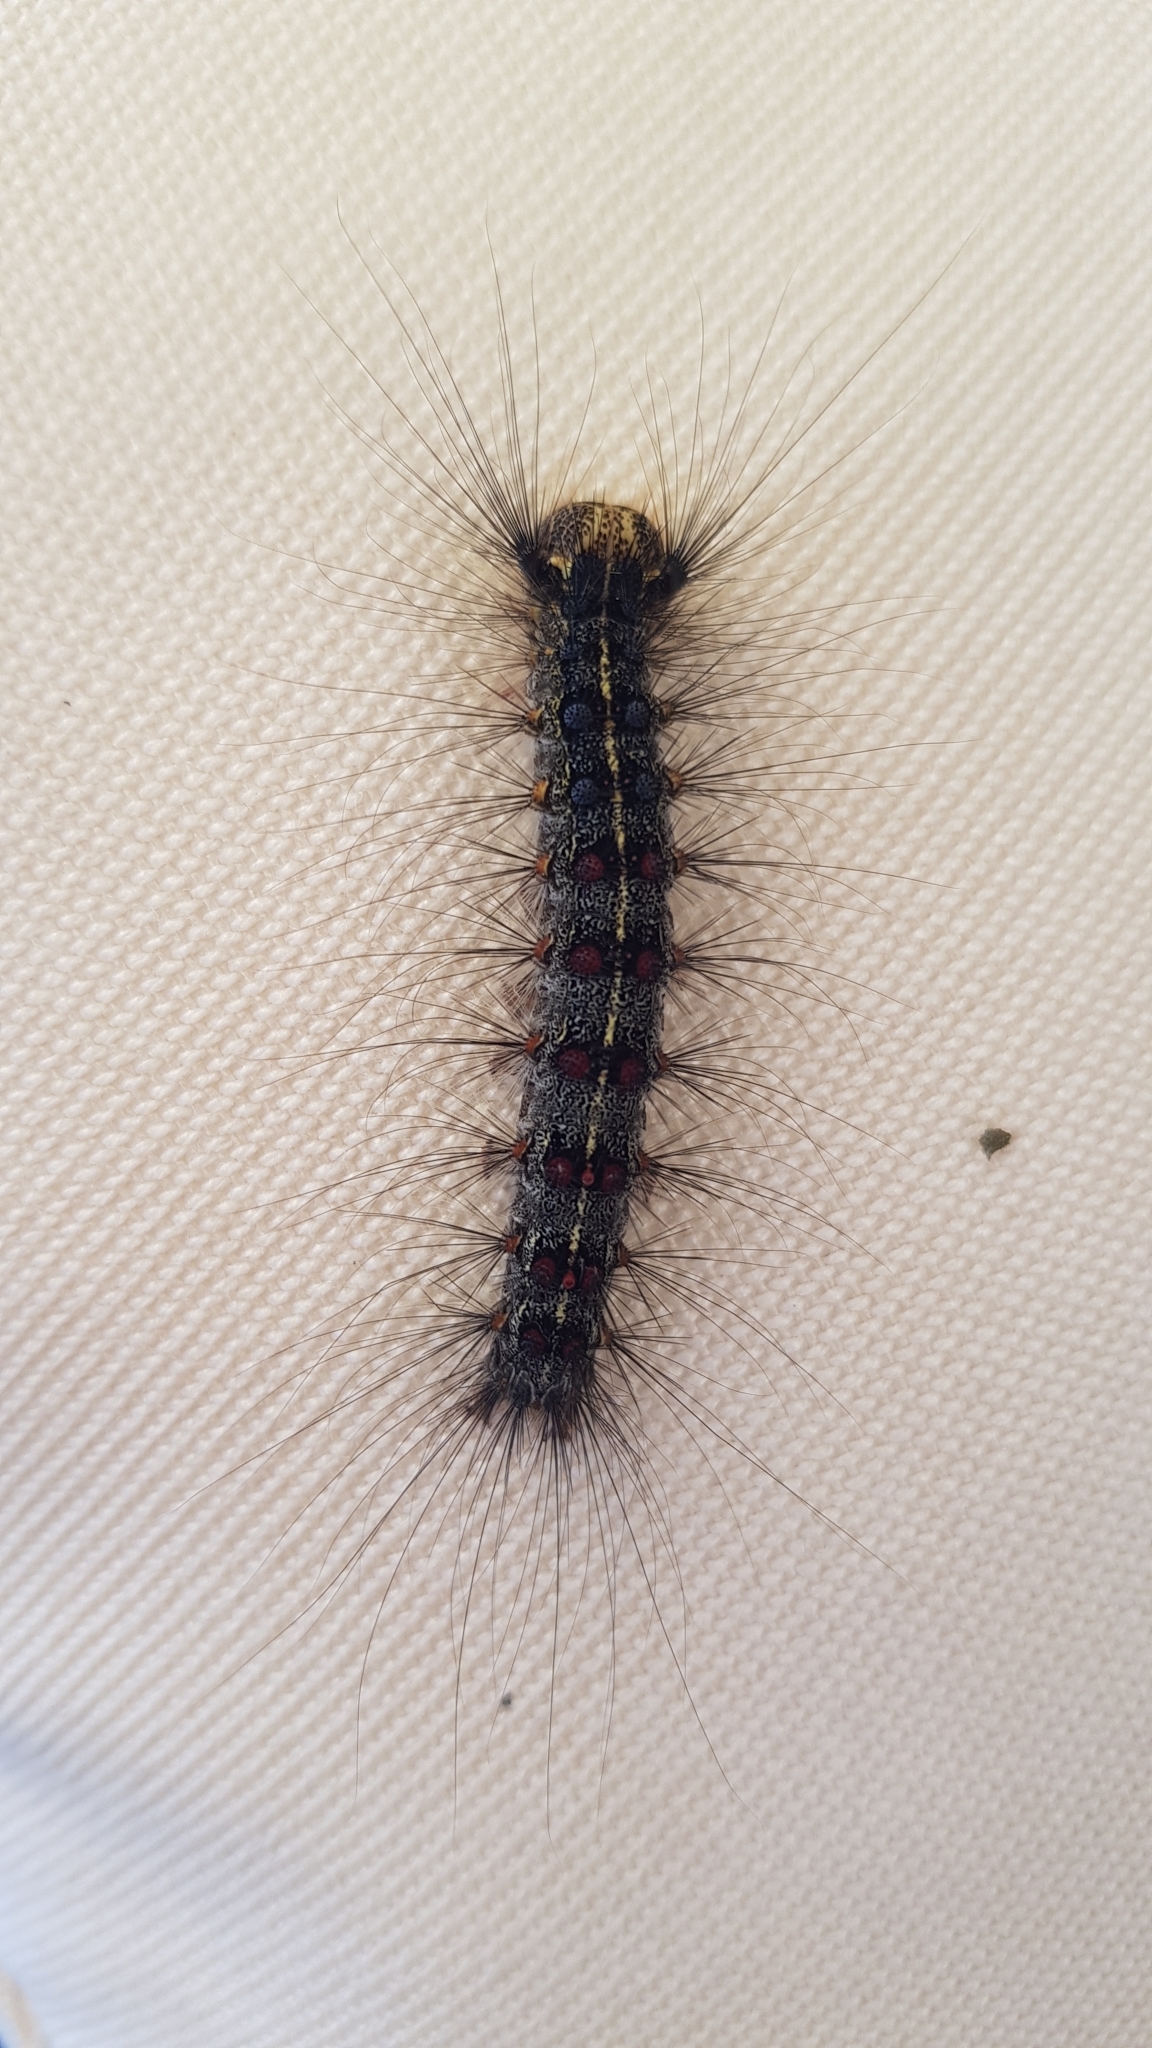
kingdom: Animalia
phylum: Arthropoda
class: Insecta
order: Lepidoptera
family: Erebidae
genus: Lymantria
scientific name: Lymantria dispar
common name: Gypsy moth
